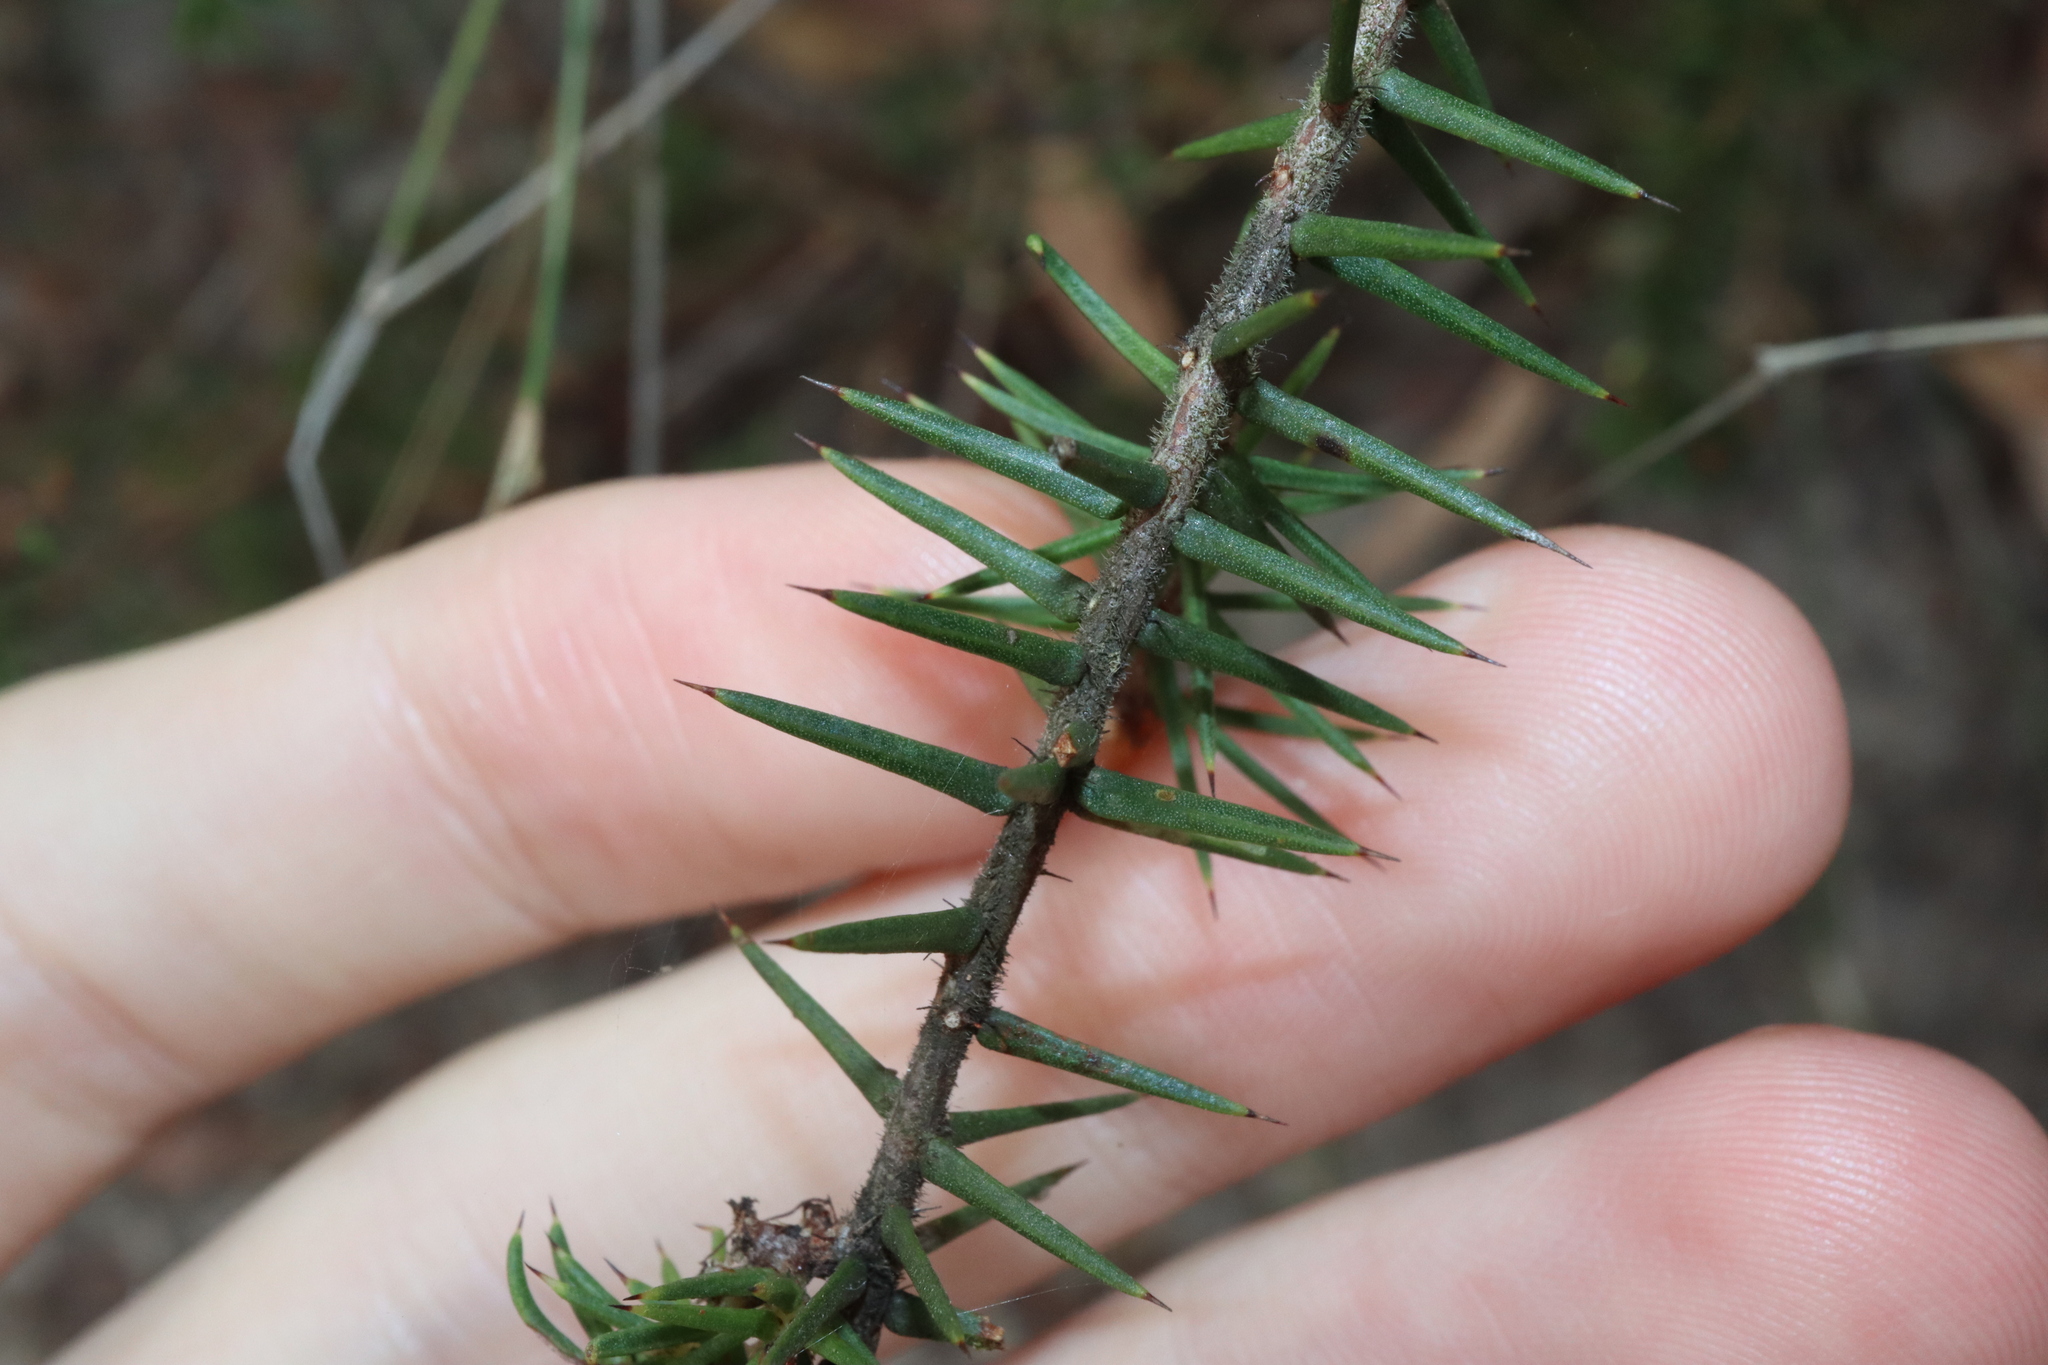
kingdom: Plantae
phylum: Tracheophyta
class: Magnoliopsida
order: Fabales
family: Fabaceae
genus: Acacia
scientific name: Acacia ulicifolia
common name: Juniper wattle
